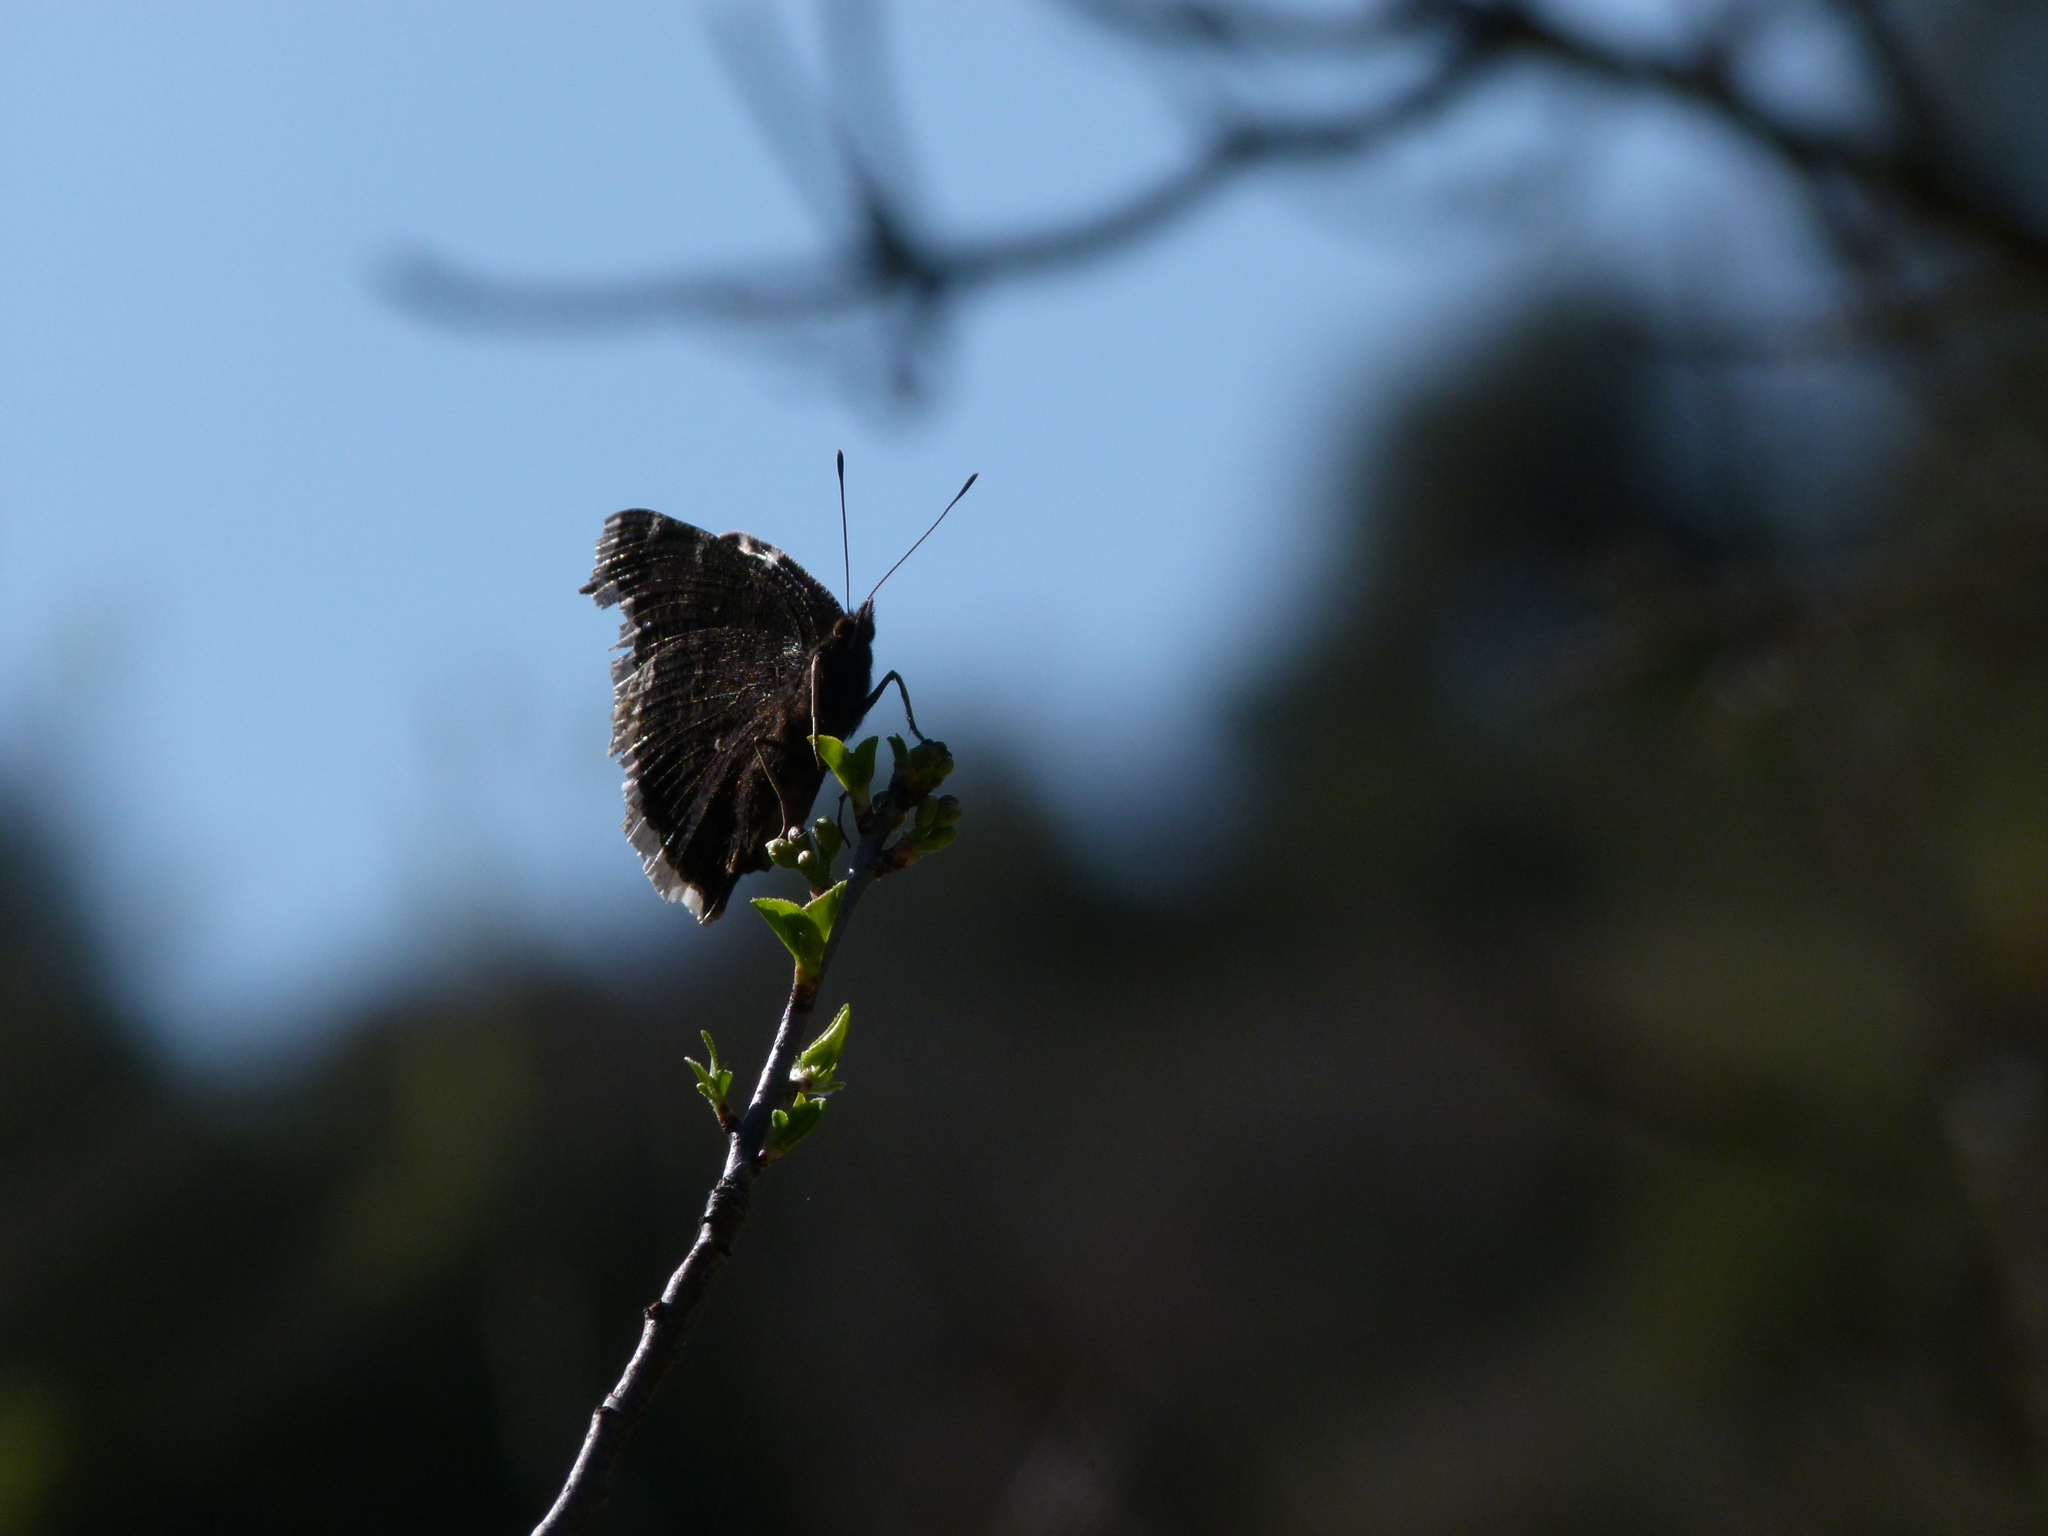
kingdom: Animalia
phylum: Arthropoda
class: Insecta
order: Lepidoptera
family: Nymphalidae
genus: Nymphalis
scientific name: Nymphalis antiopa
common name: Camberwell beauty
